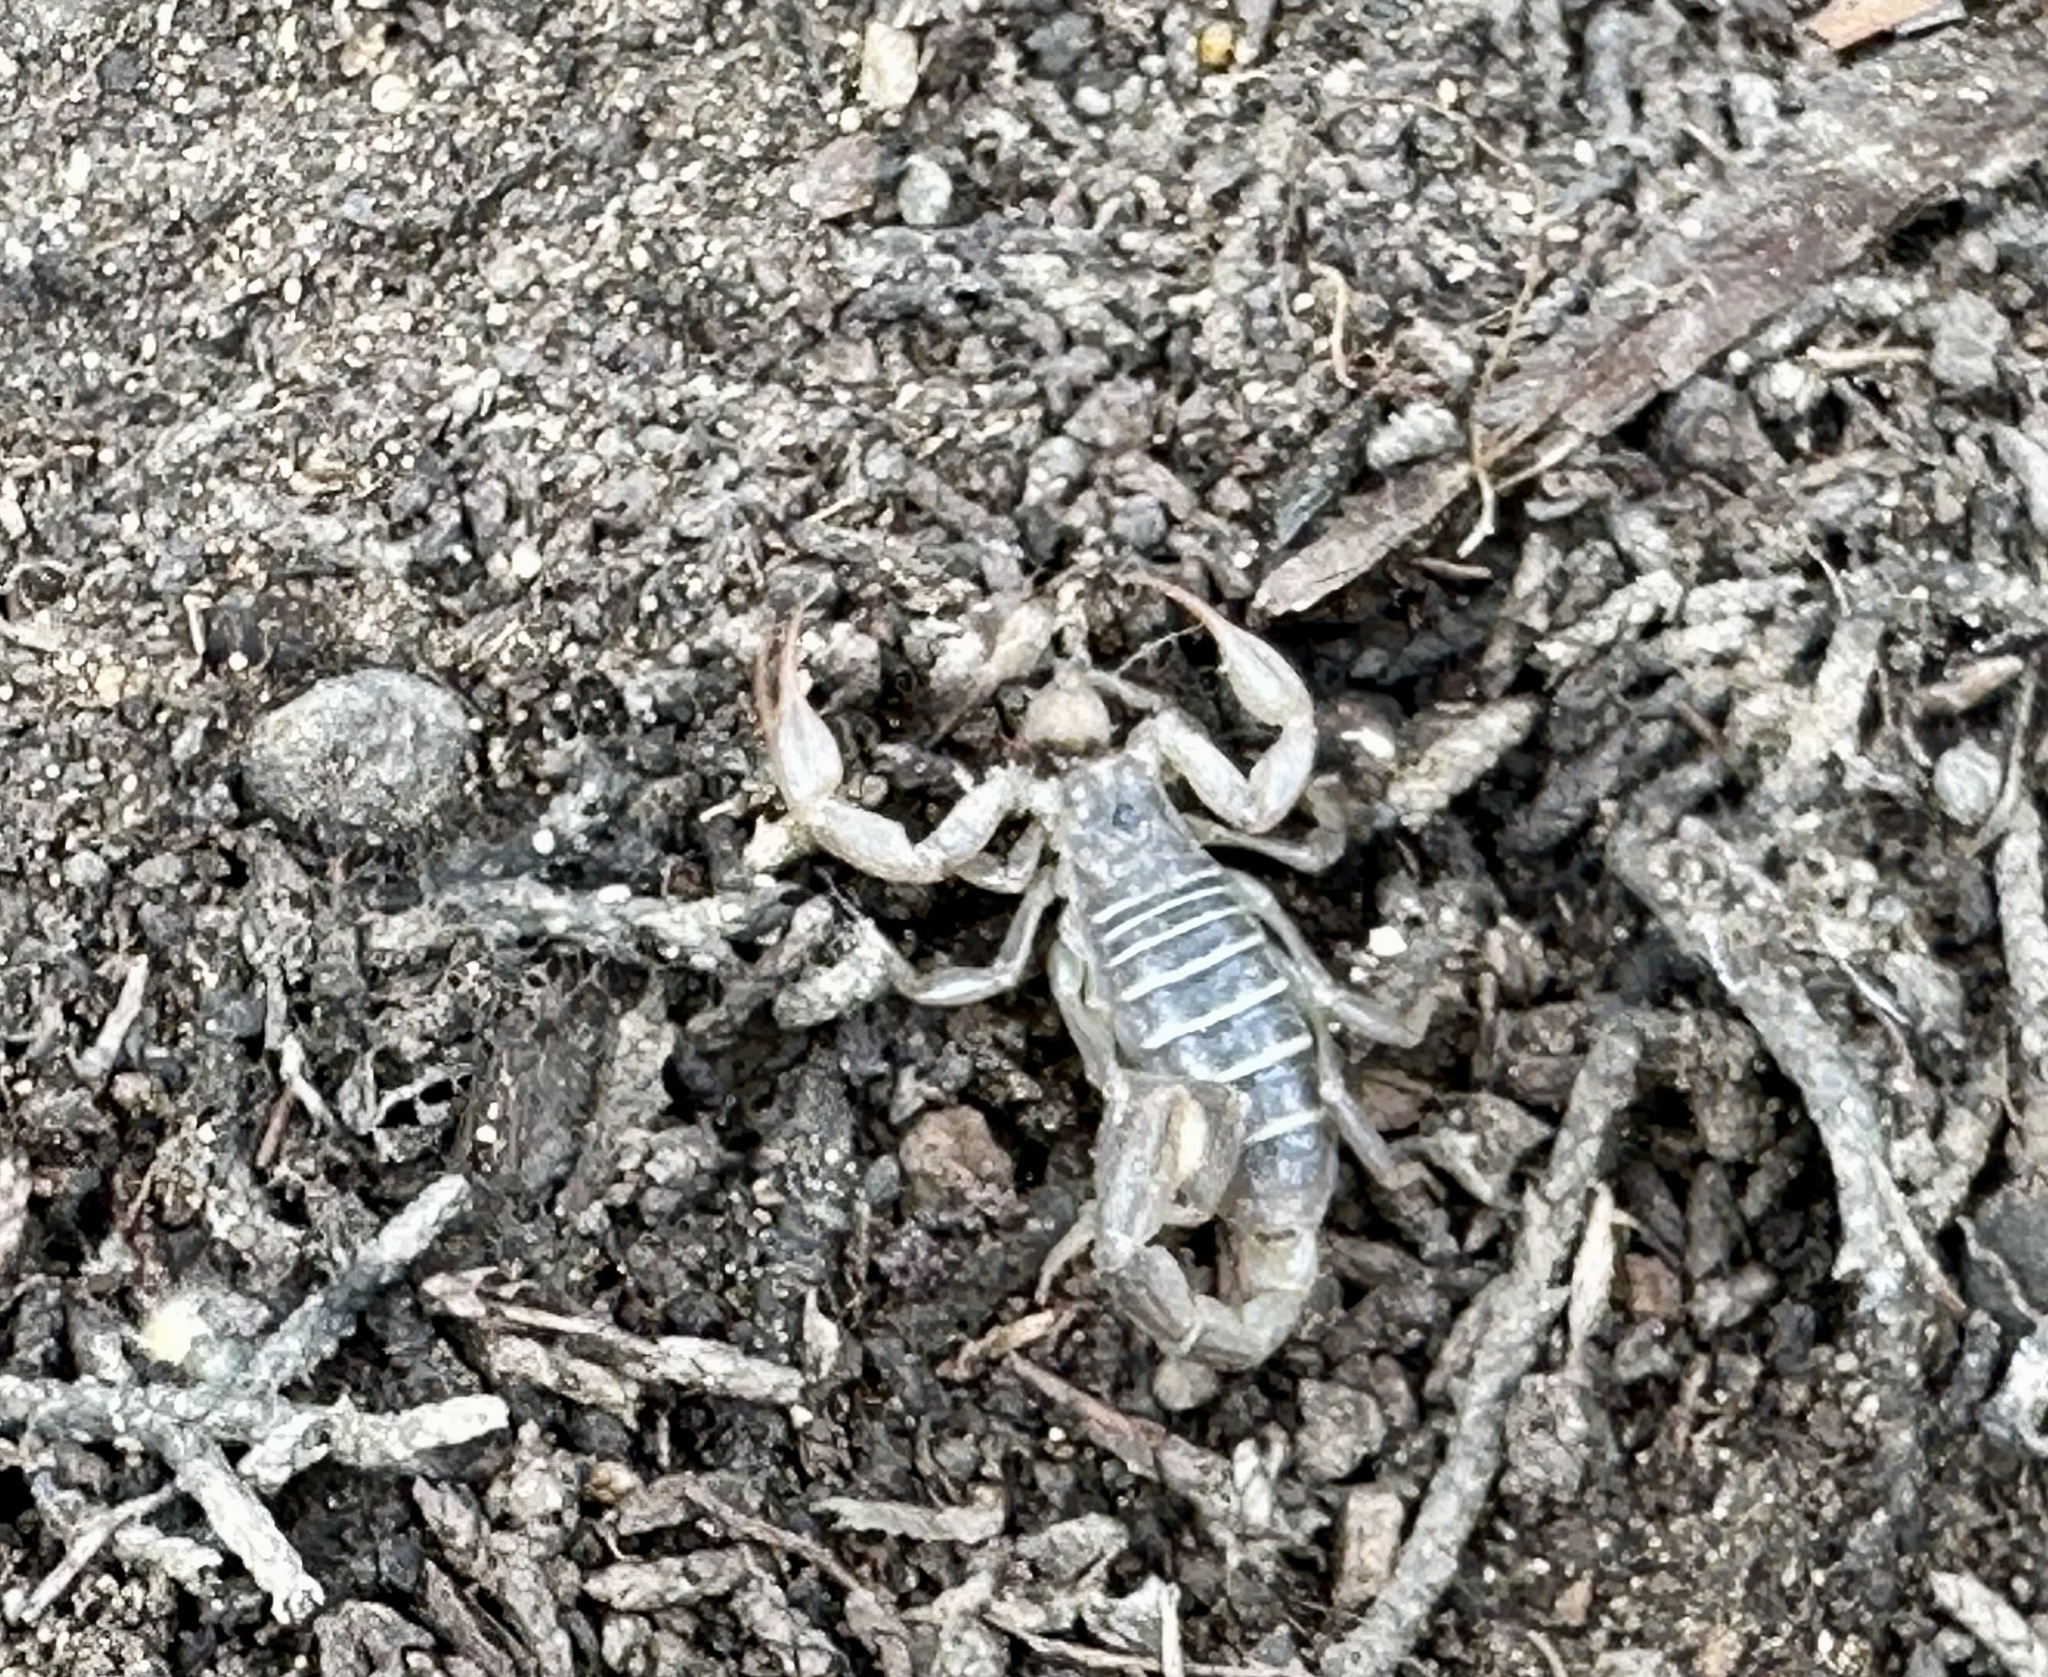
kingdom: Animalia
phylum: Arthropoda
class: Arachnida
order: Scorpiones
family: Vaejovidae
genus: Paruroctonus
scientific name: Paruroctonus boreus
